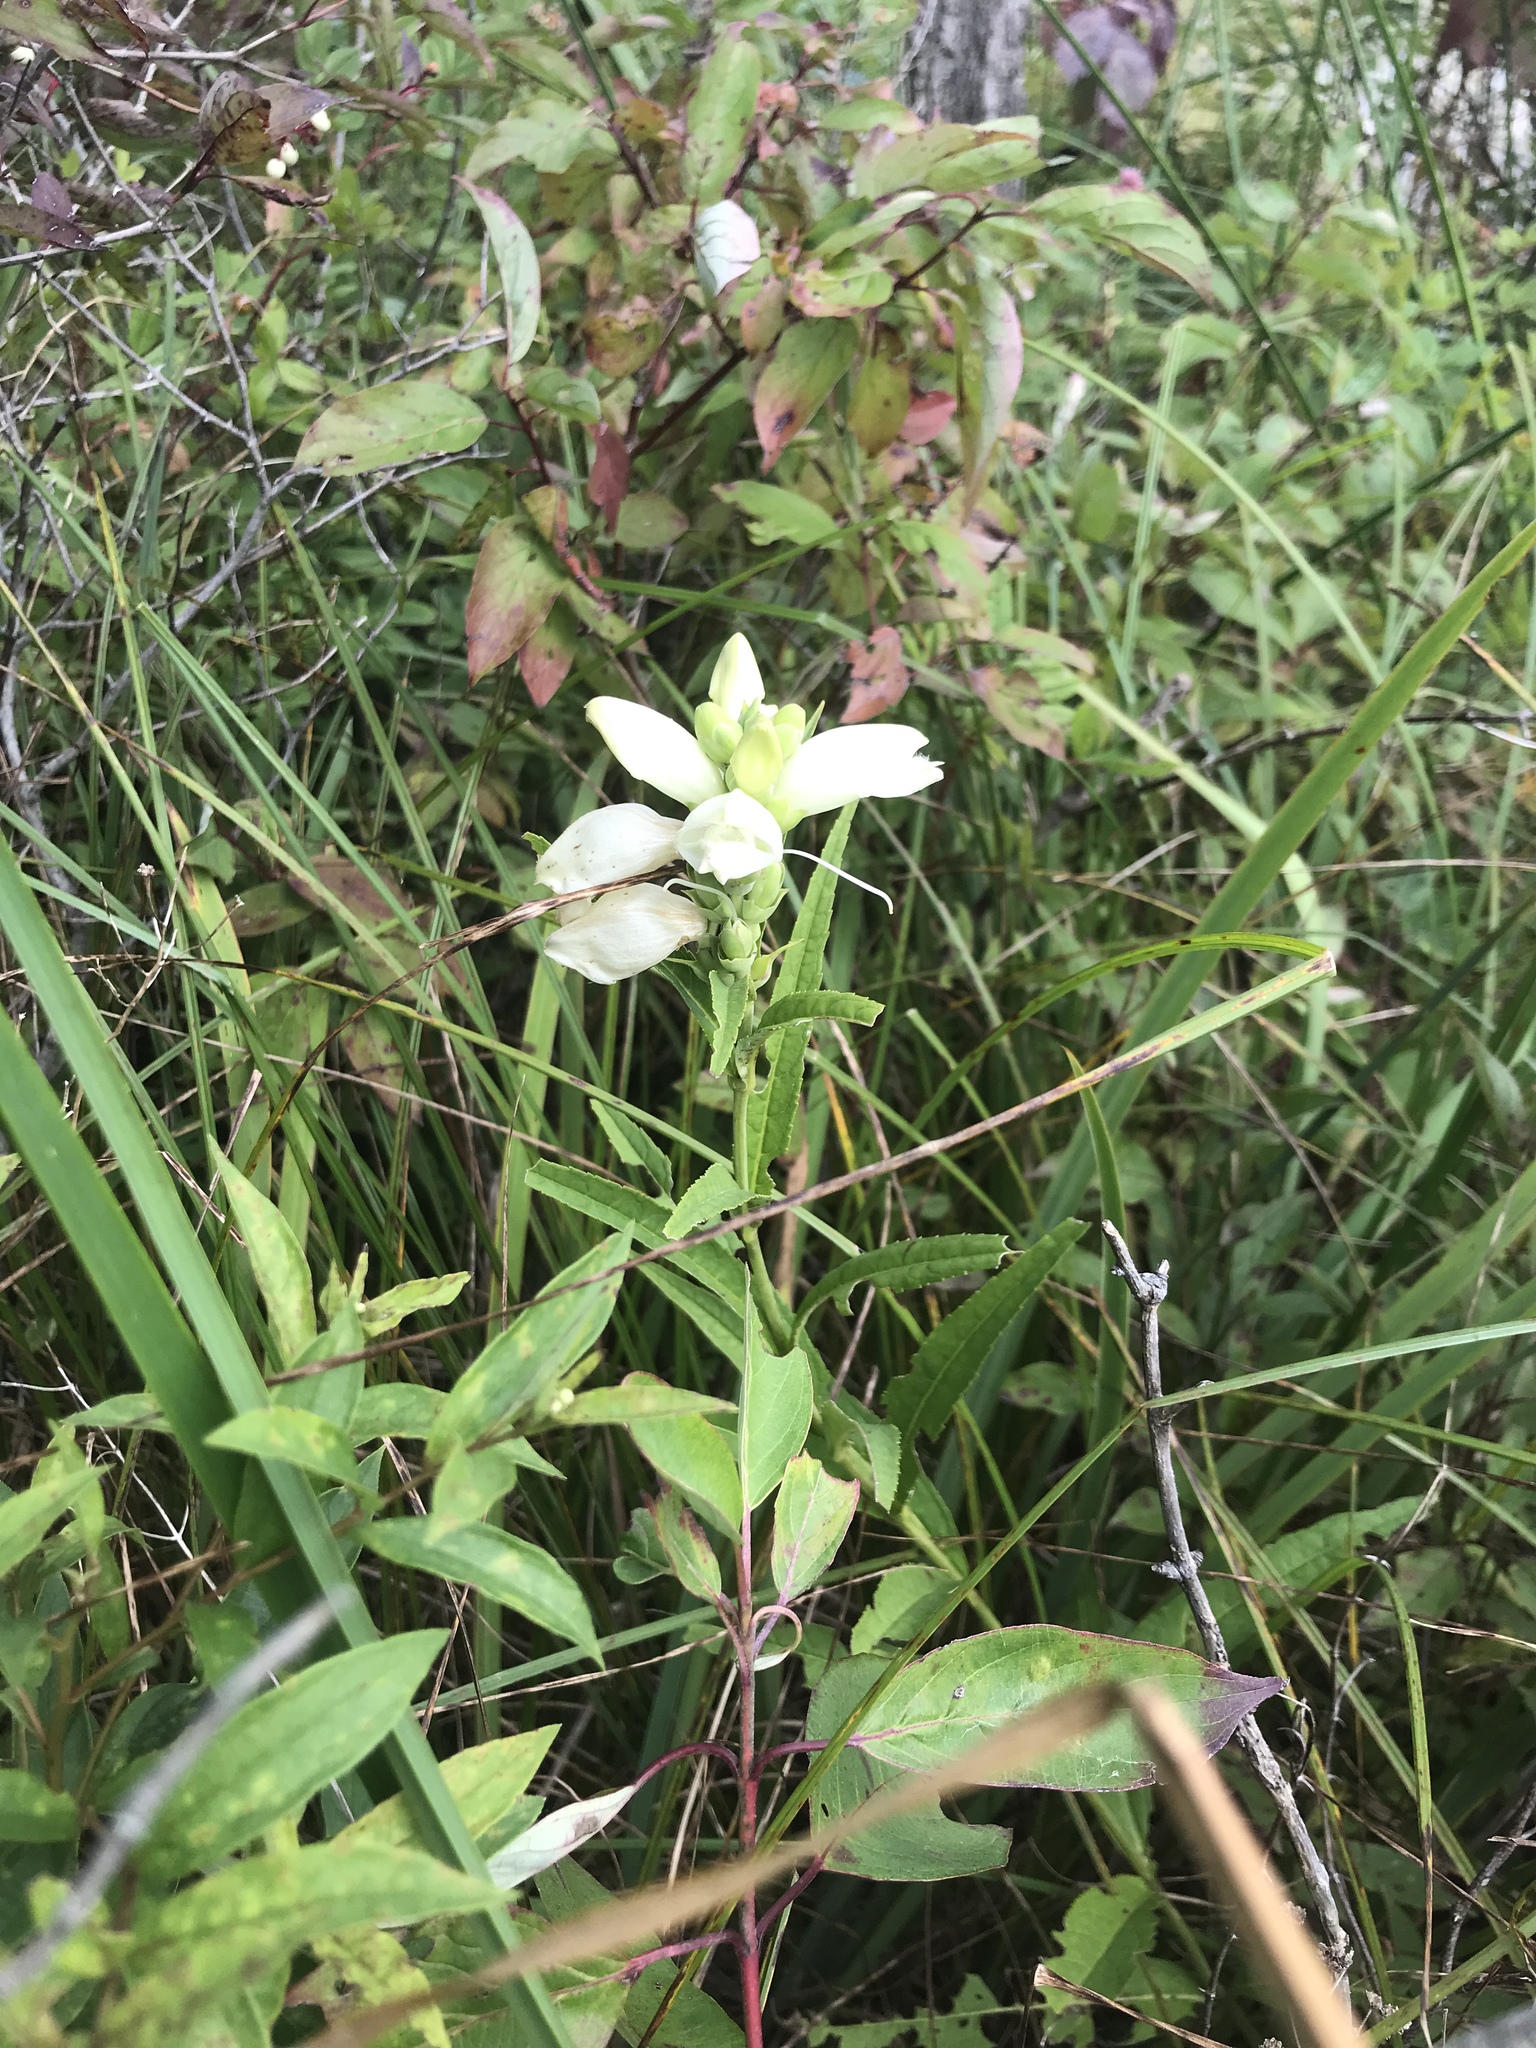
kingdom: Plantae
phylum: Tracheophyta
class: Magnoliopsida
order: Lamiales
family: Plantaginaceae
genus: Chelone
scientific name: Chelone glabra
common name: Snakehead
